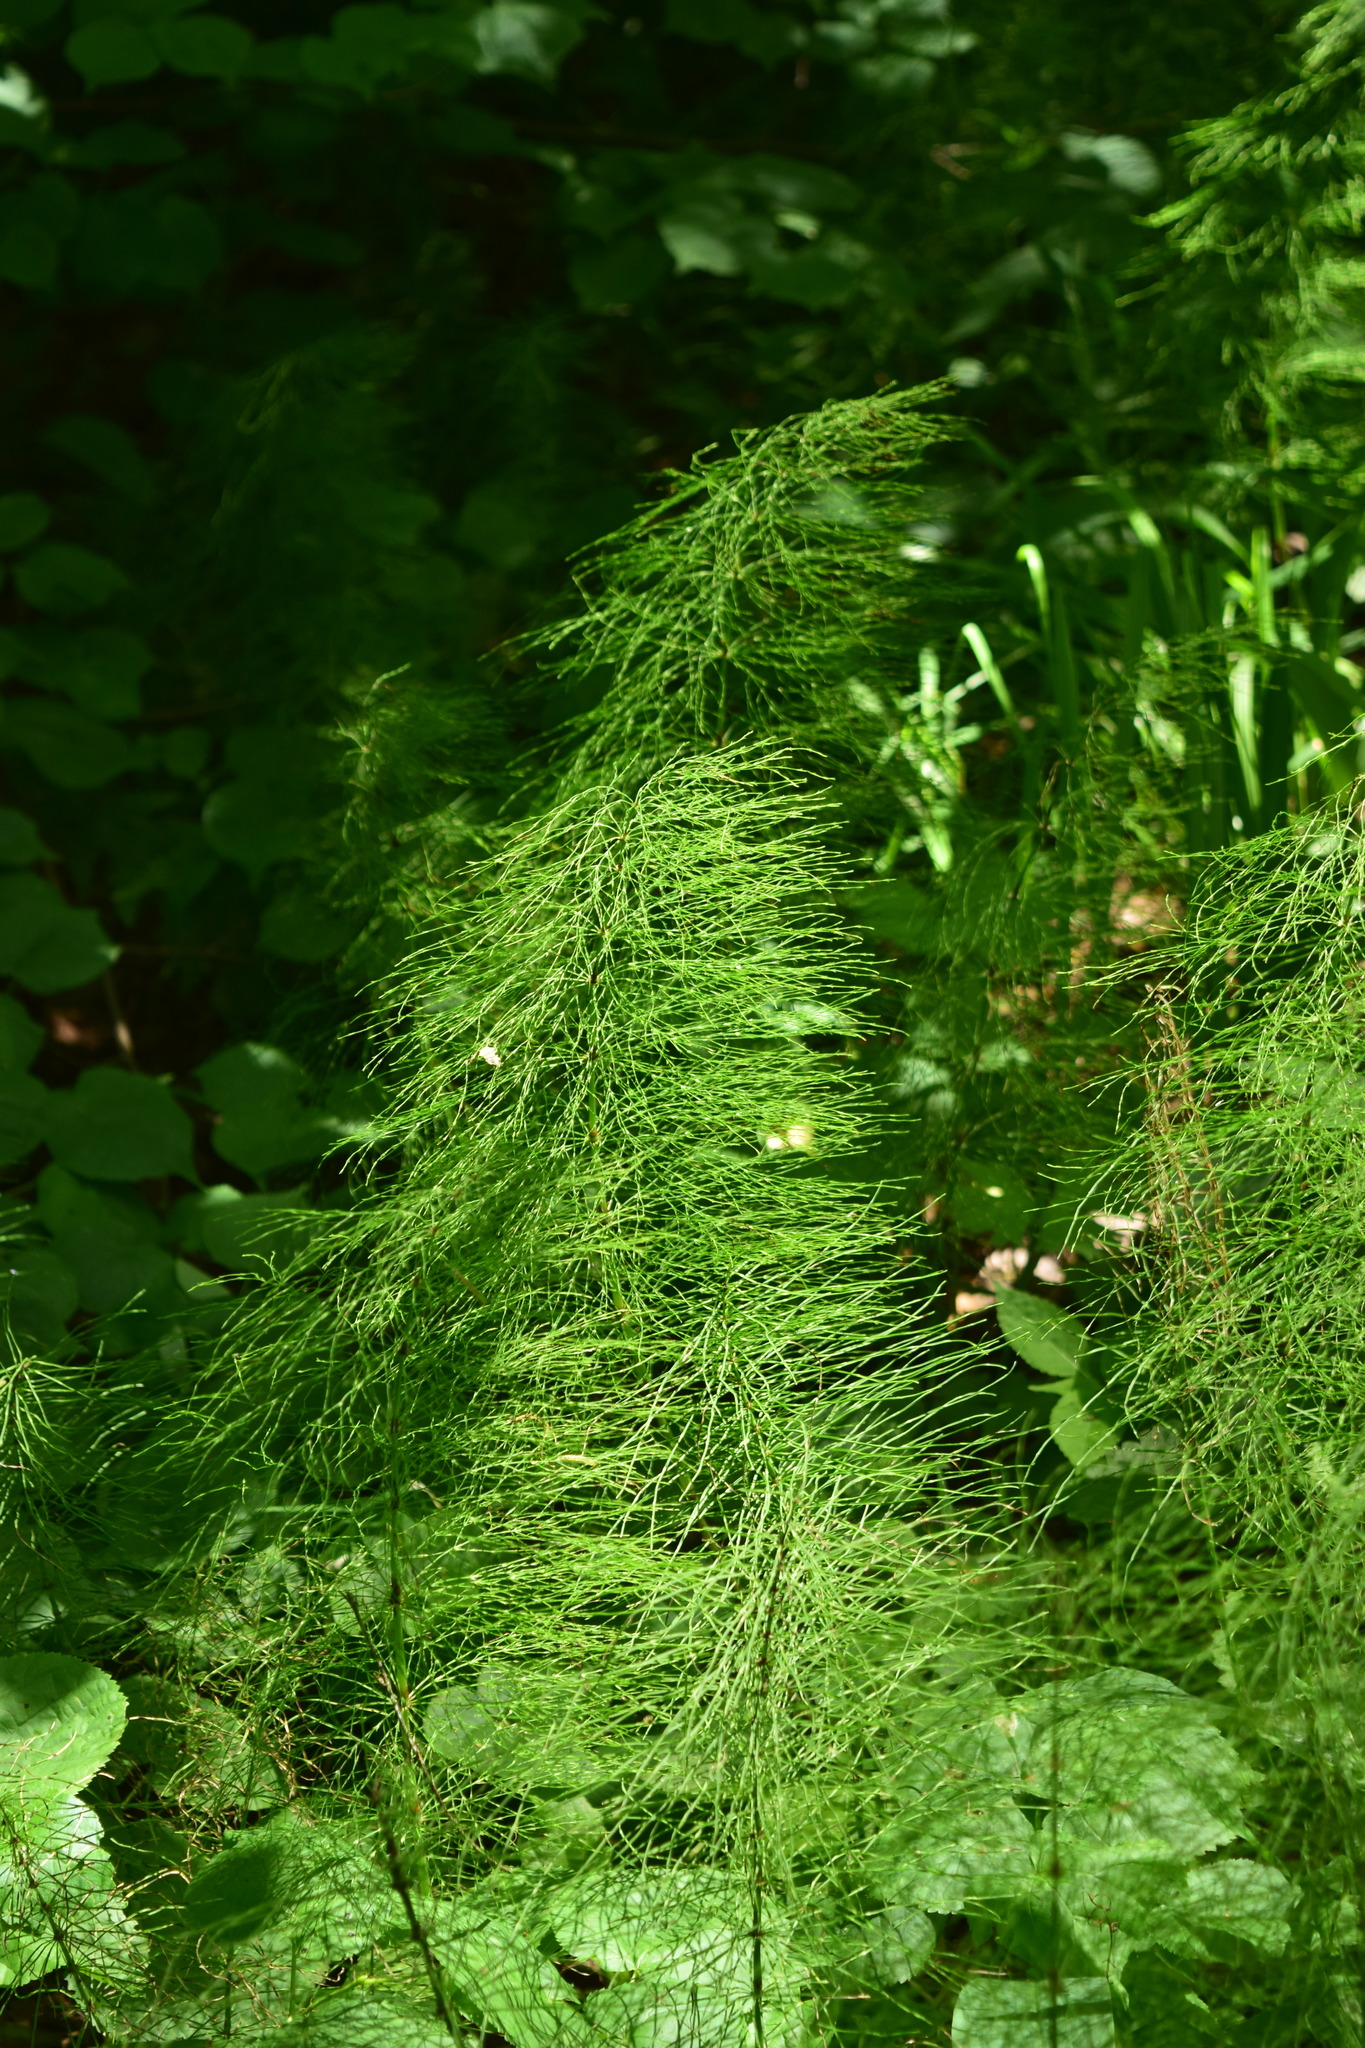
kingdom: Plantae
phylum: Tracheophyta
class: Polypodiopsida
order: Equisetales
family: Equisetaceae
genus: Equisetum
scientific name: Equisetum sylvaticum
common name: Wood horsetail
